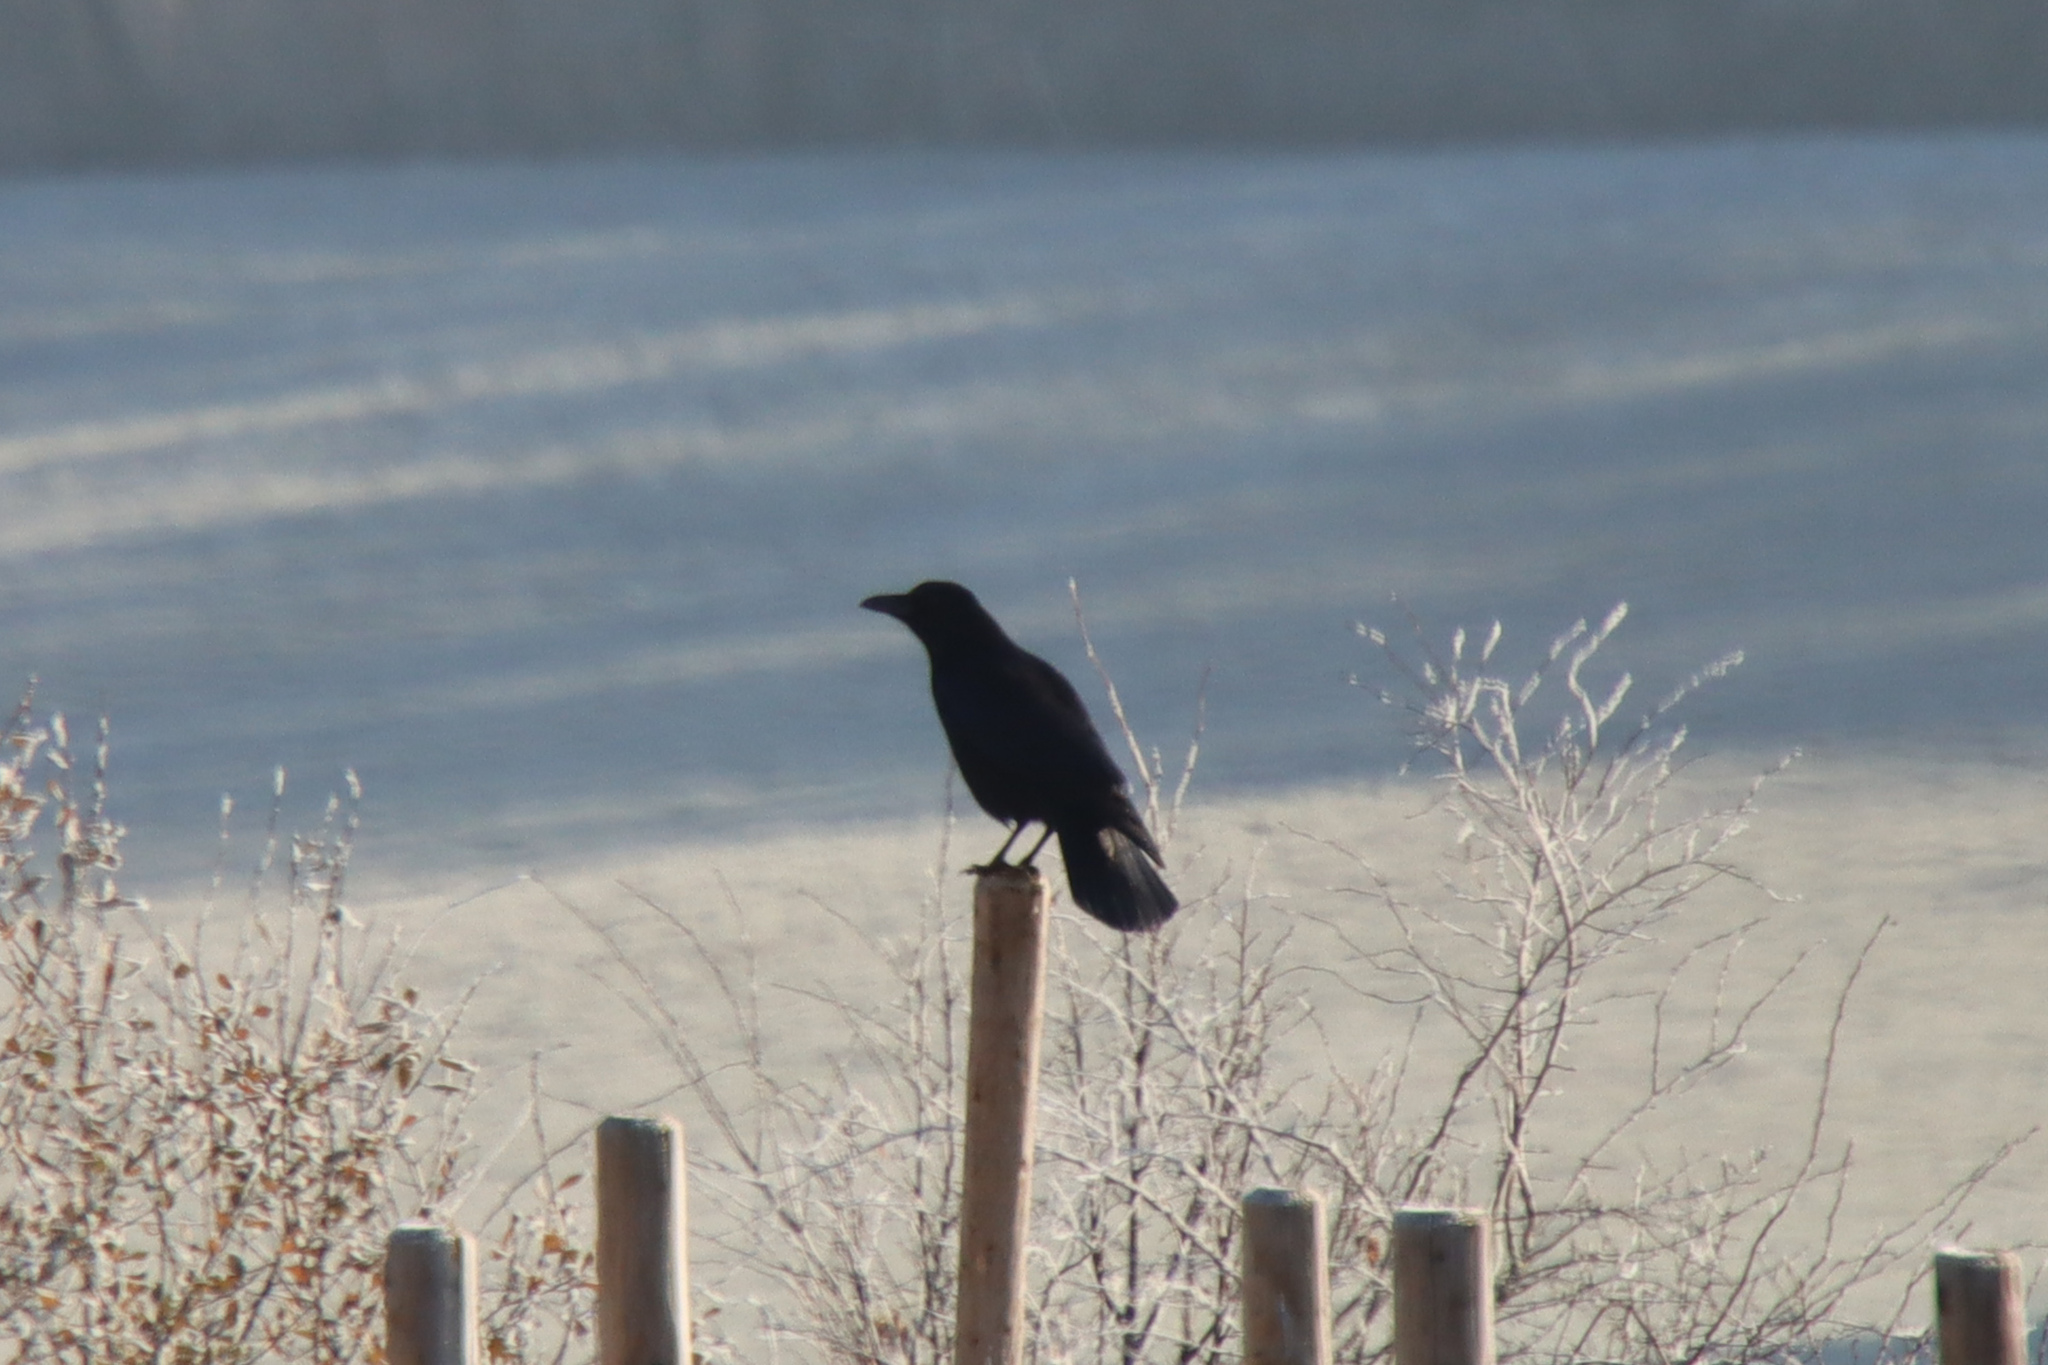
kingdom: Animalia
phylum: Chordata
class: Aves
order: Passeriformes
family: Corvidae
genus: Corvus
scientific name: Corvus corone
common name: Carrion crow
